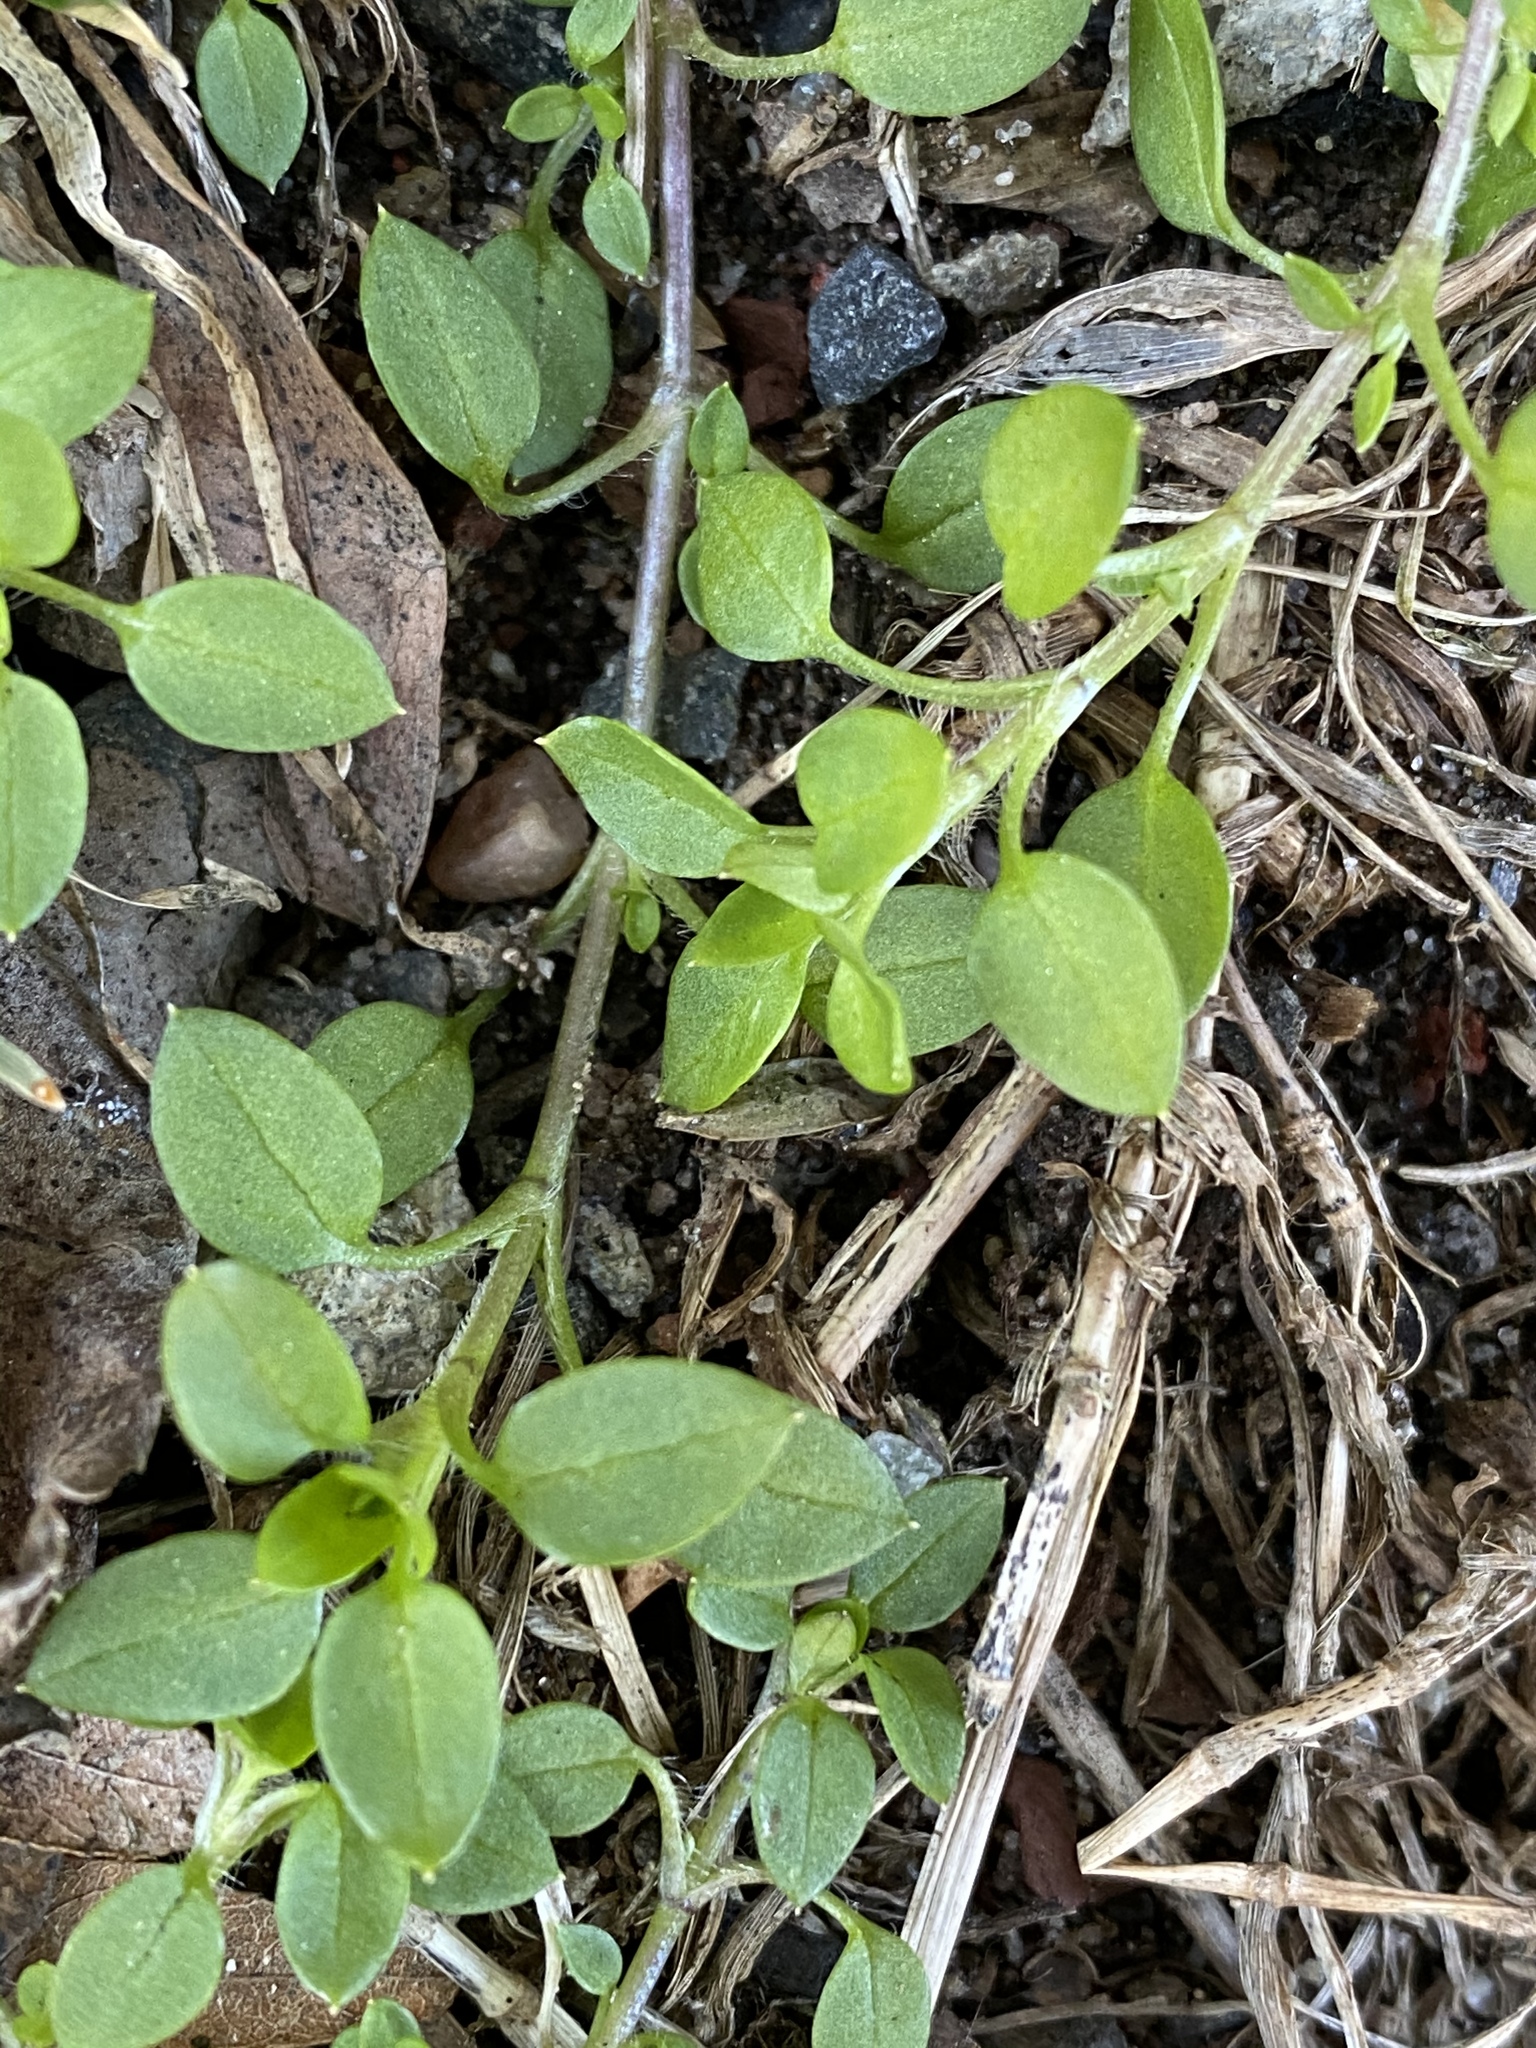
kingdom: Plantae
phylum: Tracheophyta
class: Magnoliopsida
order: Caryophyllales
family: Caryophyllaceae
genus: Stellaria
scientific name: Stellaria media
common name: Common chickweed
